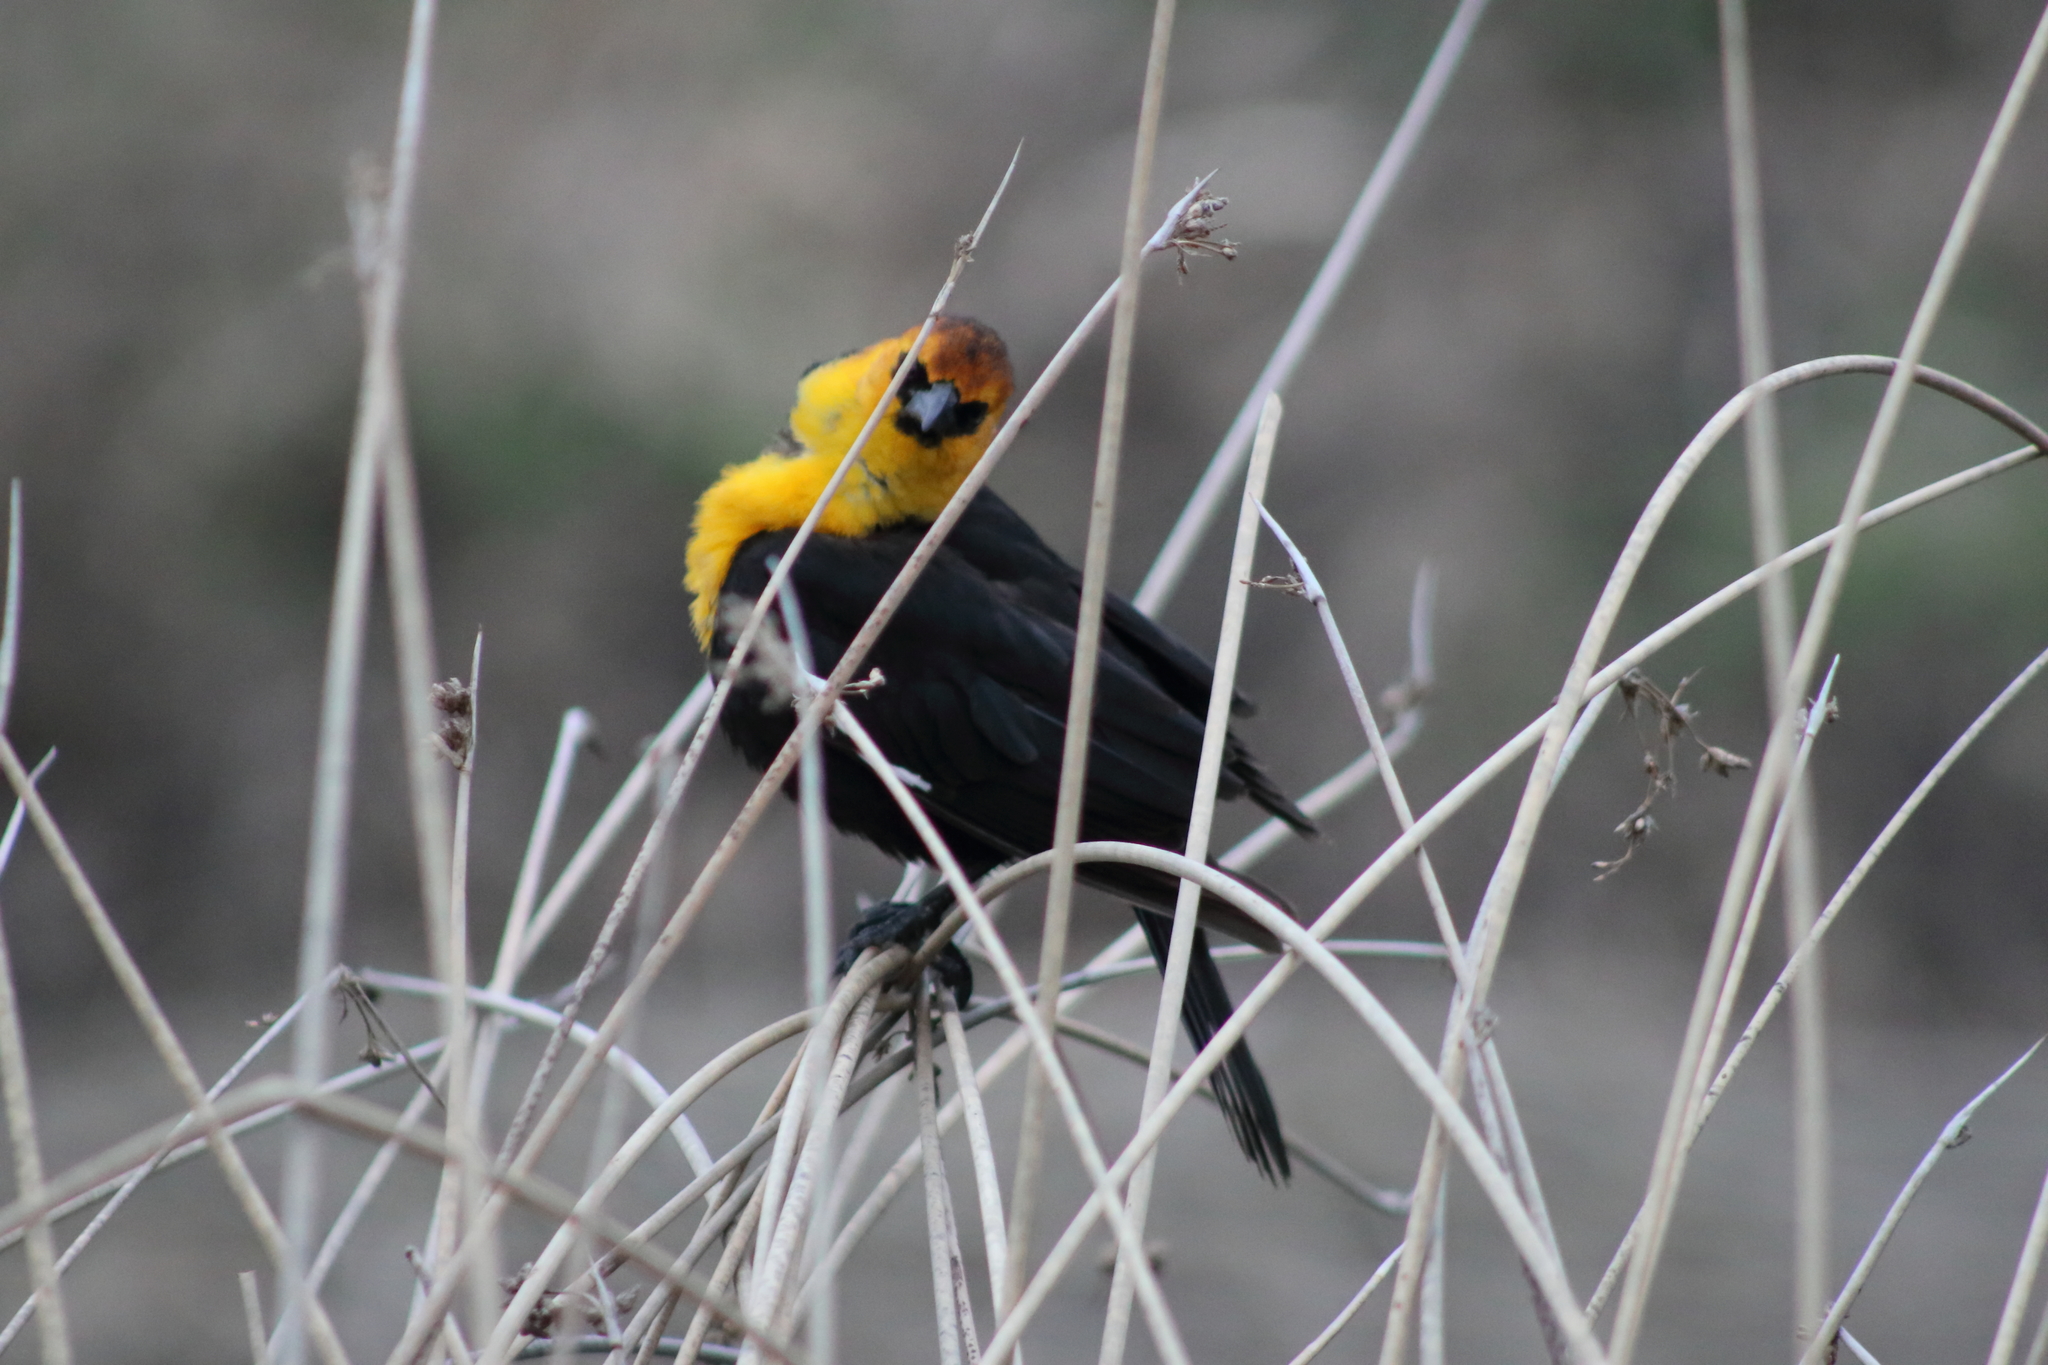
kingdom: Animalia
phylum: Chordata
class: Aves
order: Passeriformes
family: Icteridae
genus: Xanthocephalus
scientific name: Xanthocephalus xanthocephalus
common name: Yellow-headed blackbird
